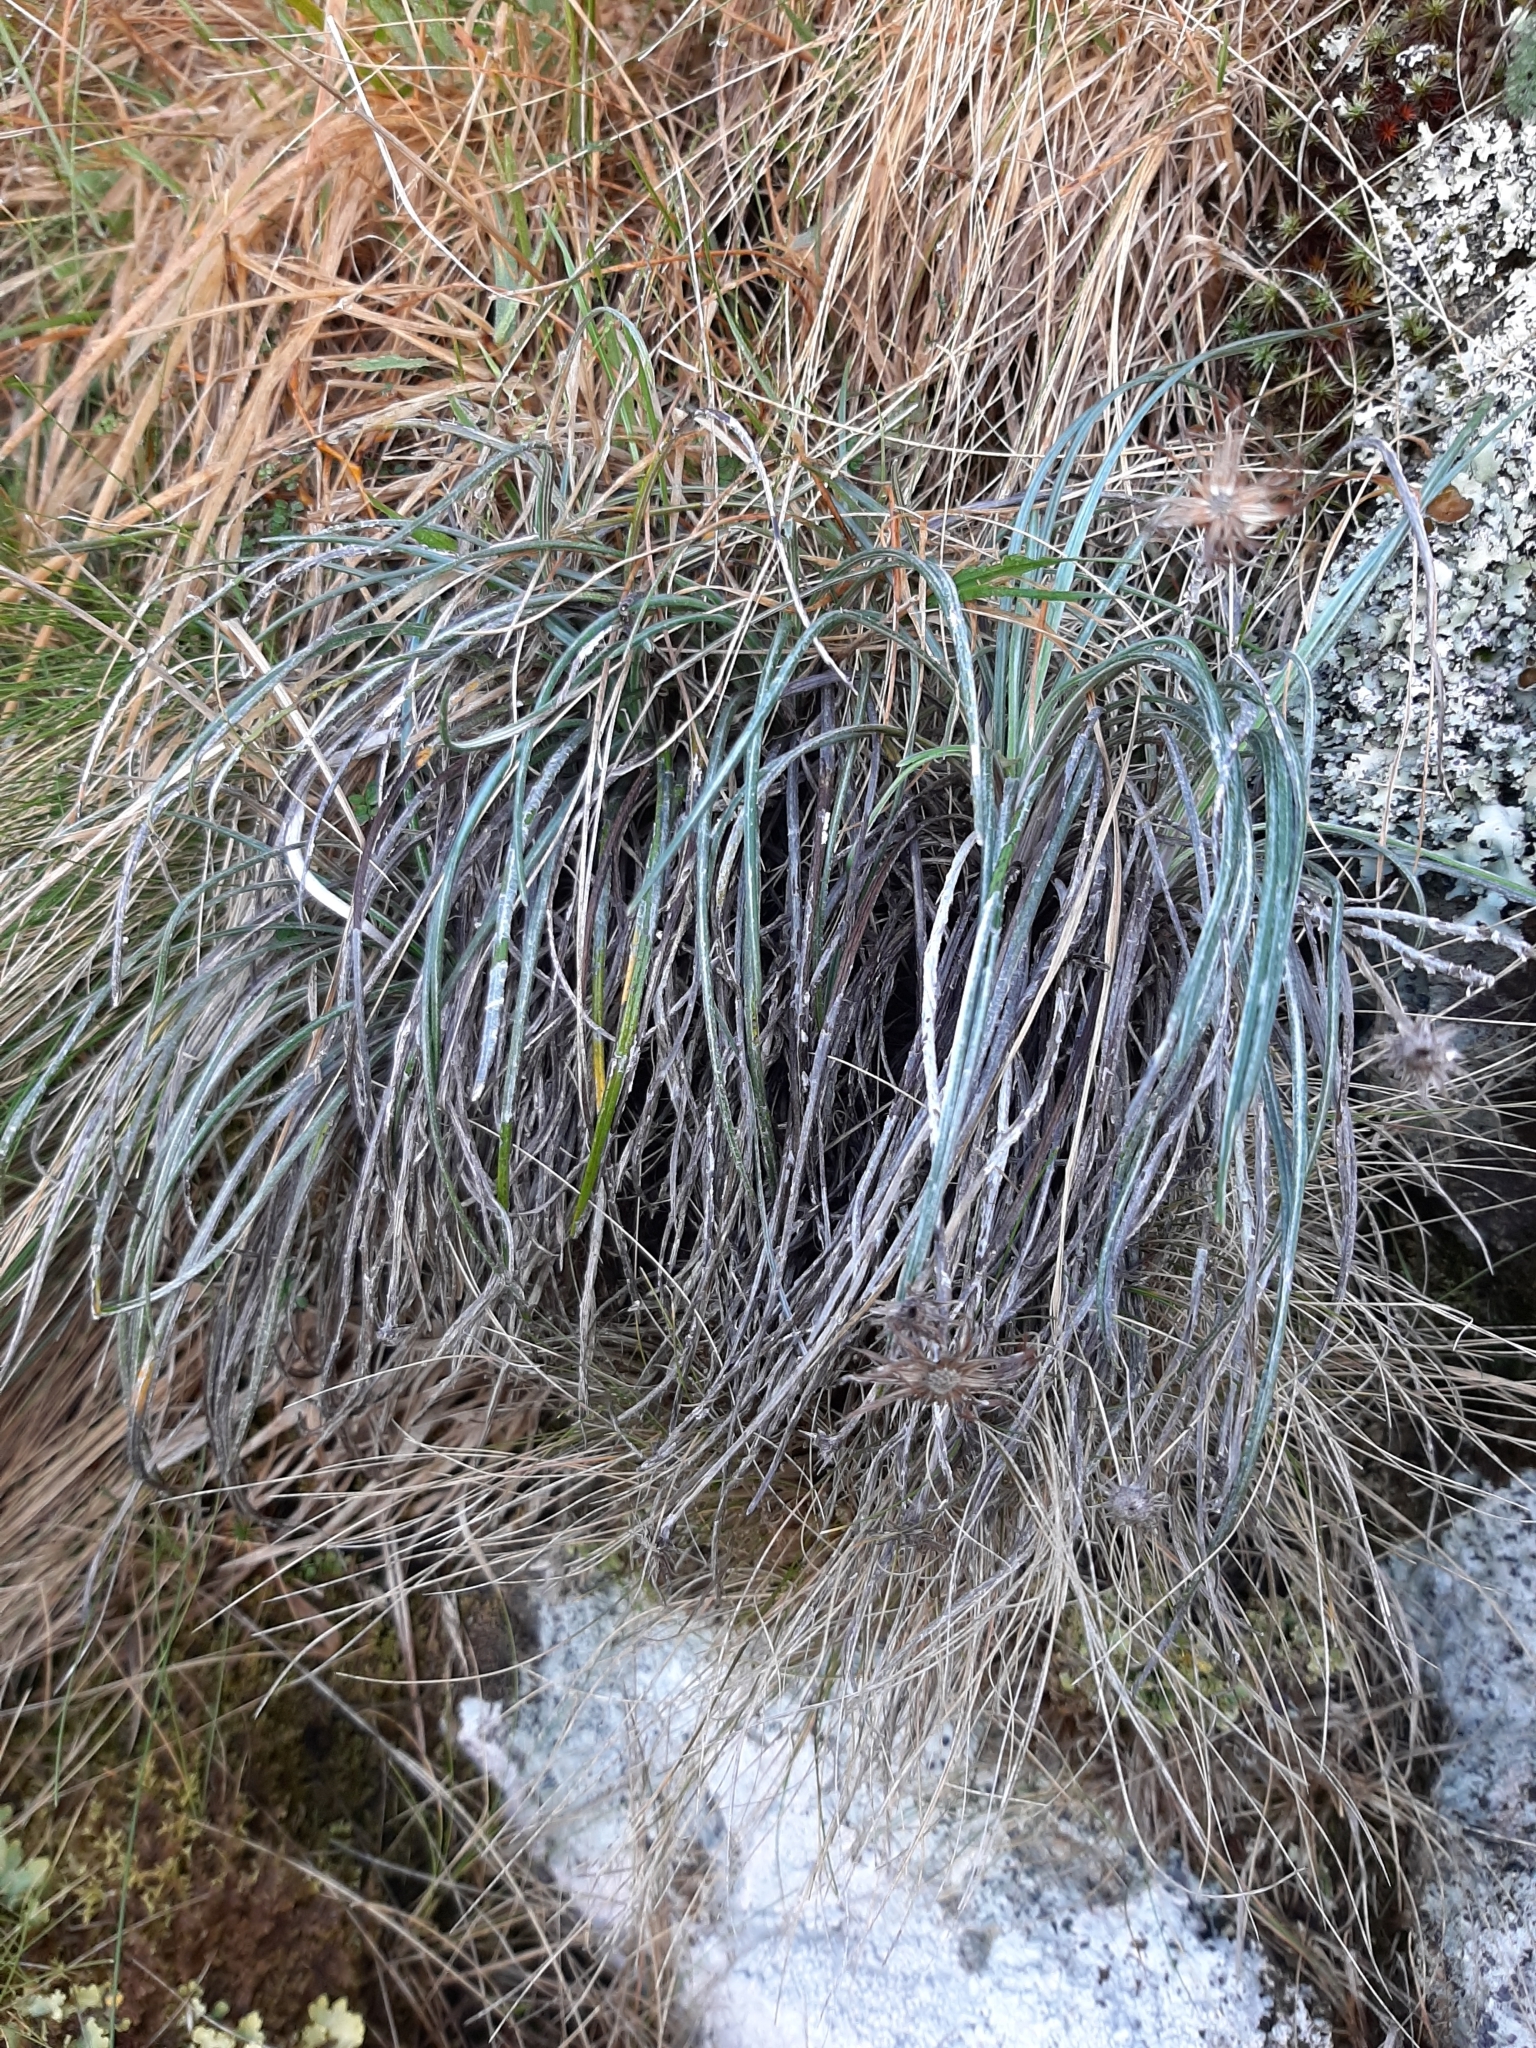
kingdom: Plantae
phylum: Tracheophyta
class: Magnoliopsida
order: Asterales
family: Asteraceae
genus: Celmisia
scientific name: Celmisia gracilenta
